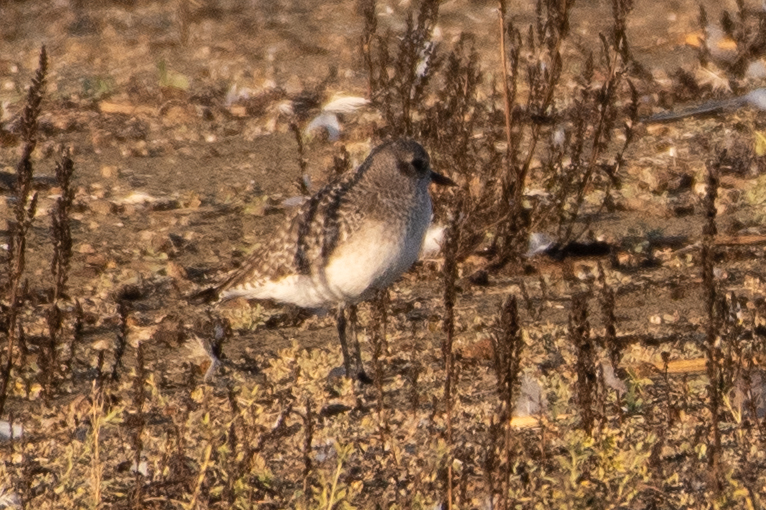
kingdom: Animalia
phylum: Chordata
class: Aves
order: Charadriiformes
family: Charadriidae
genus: Pluvialis
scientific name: Pluvialis squatarola
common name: Grey plover
